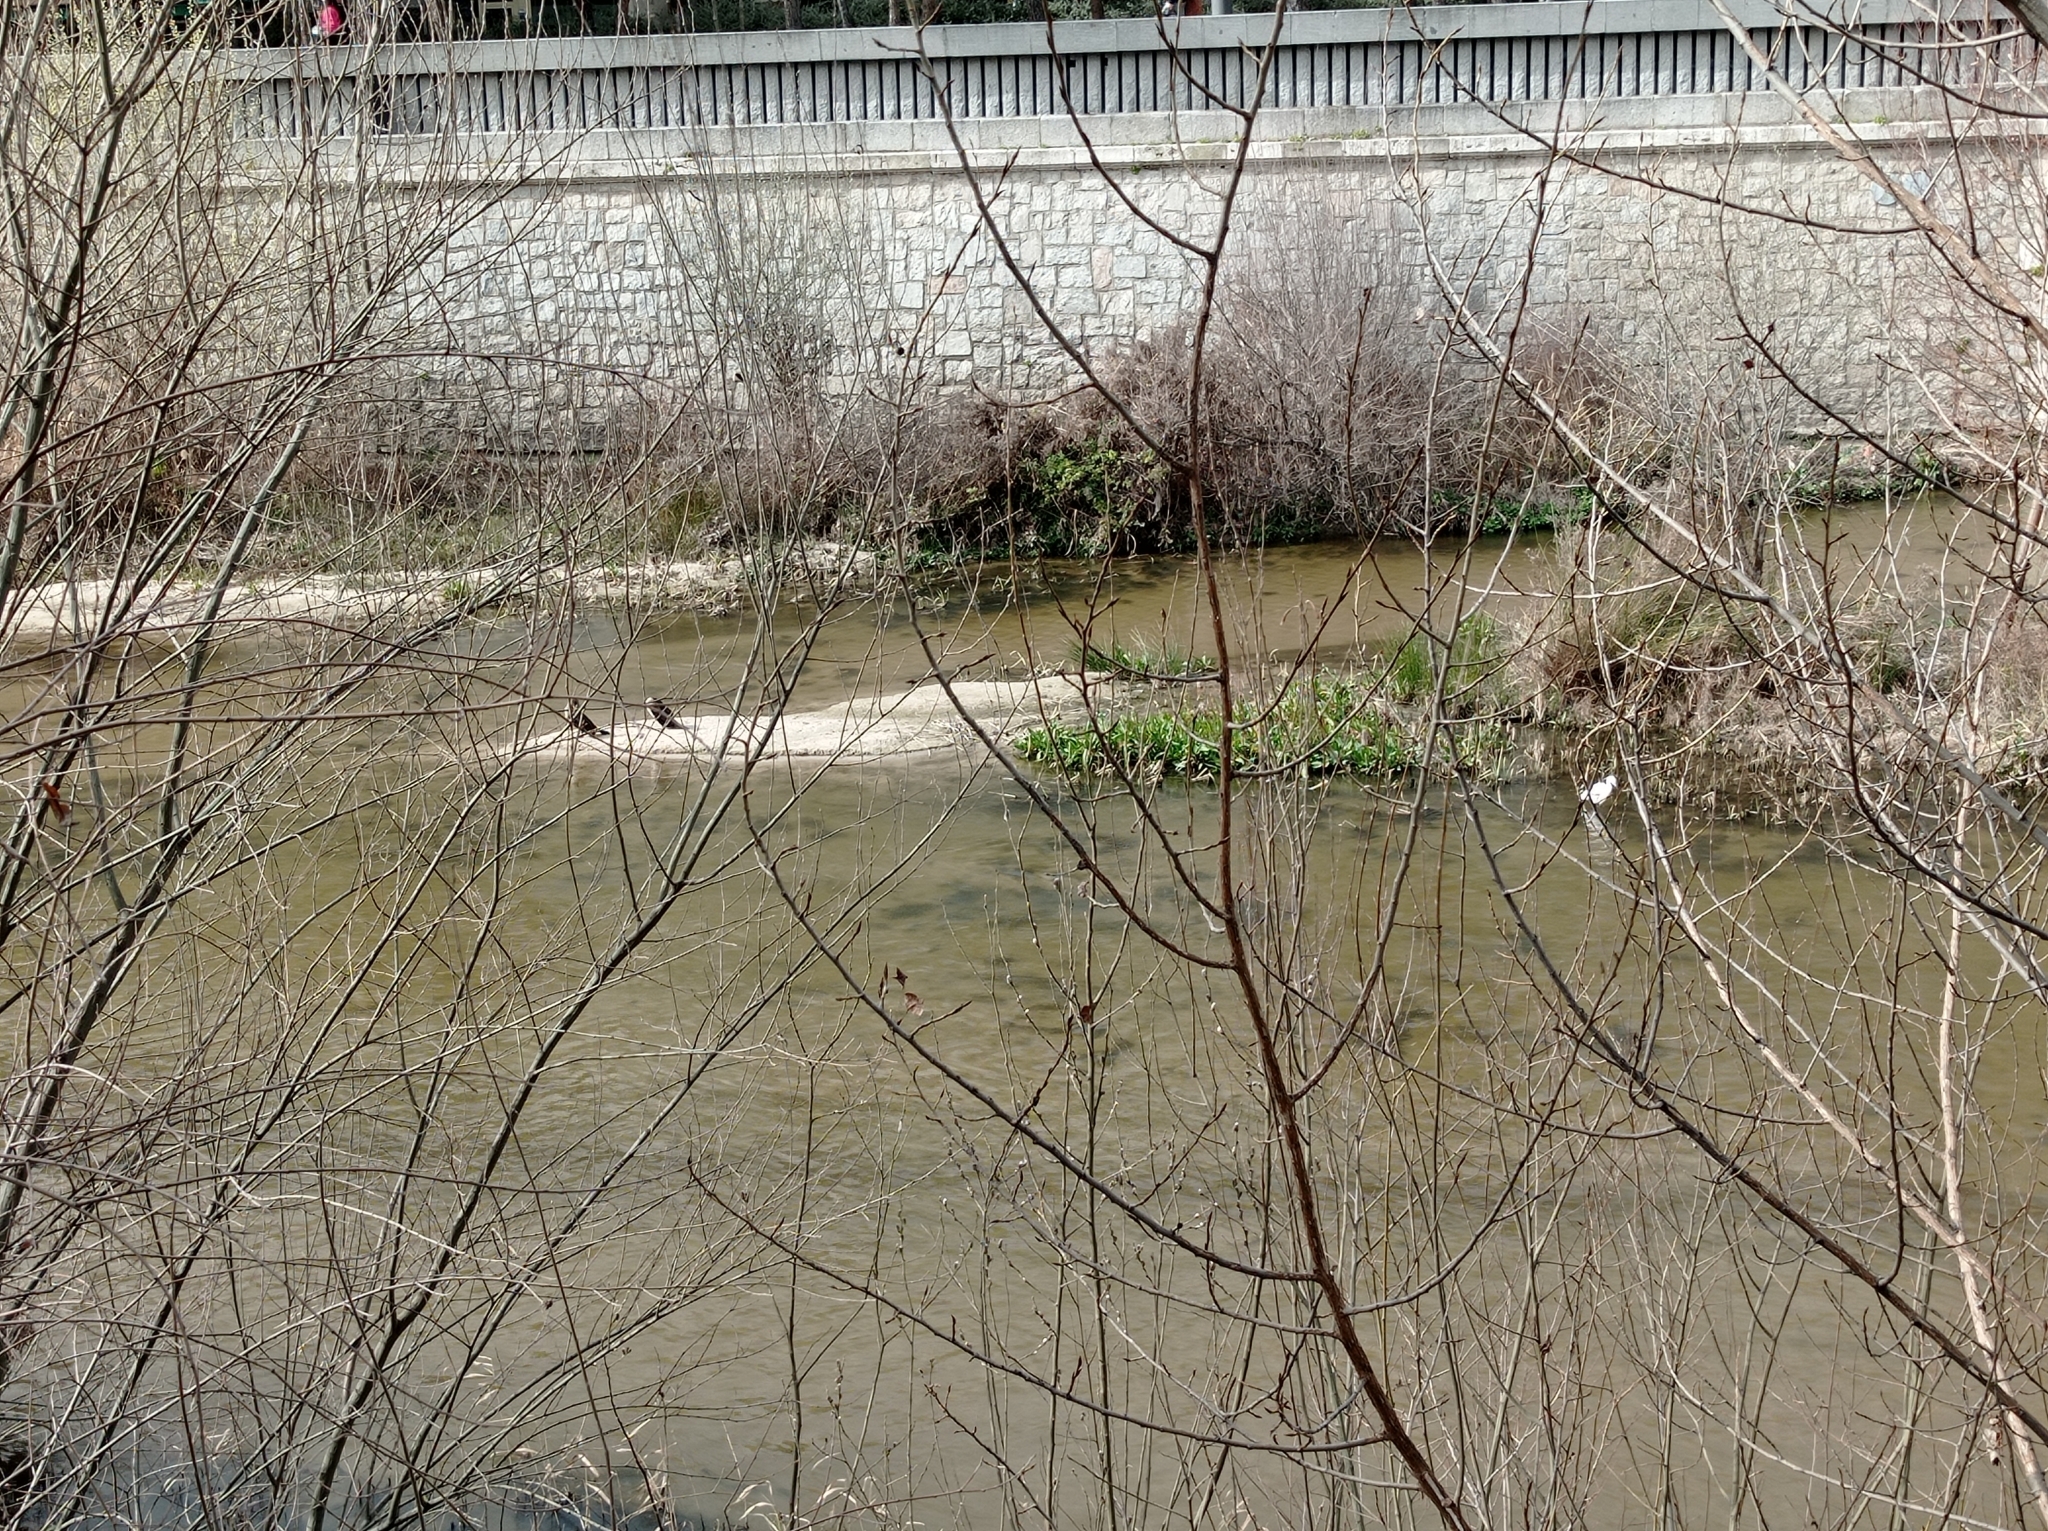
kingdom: Animalia
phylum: Chordata
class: Aves
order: Suliformes
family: Phalacrocoracidae
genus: Phalacrocorax
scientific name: Phalacrocorax carbo
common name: Great cormorant
